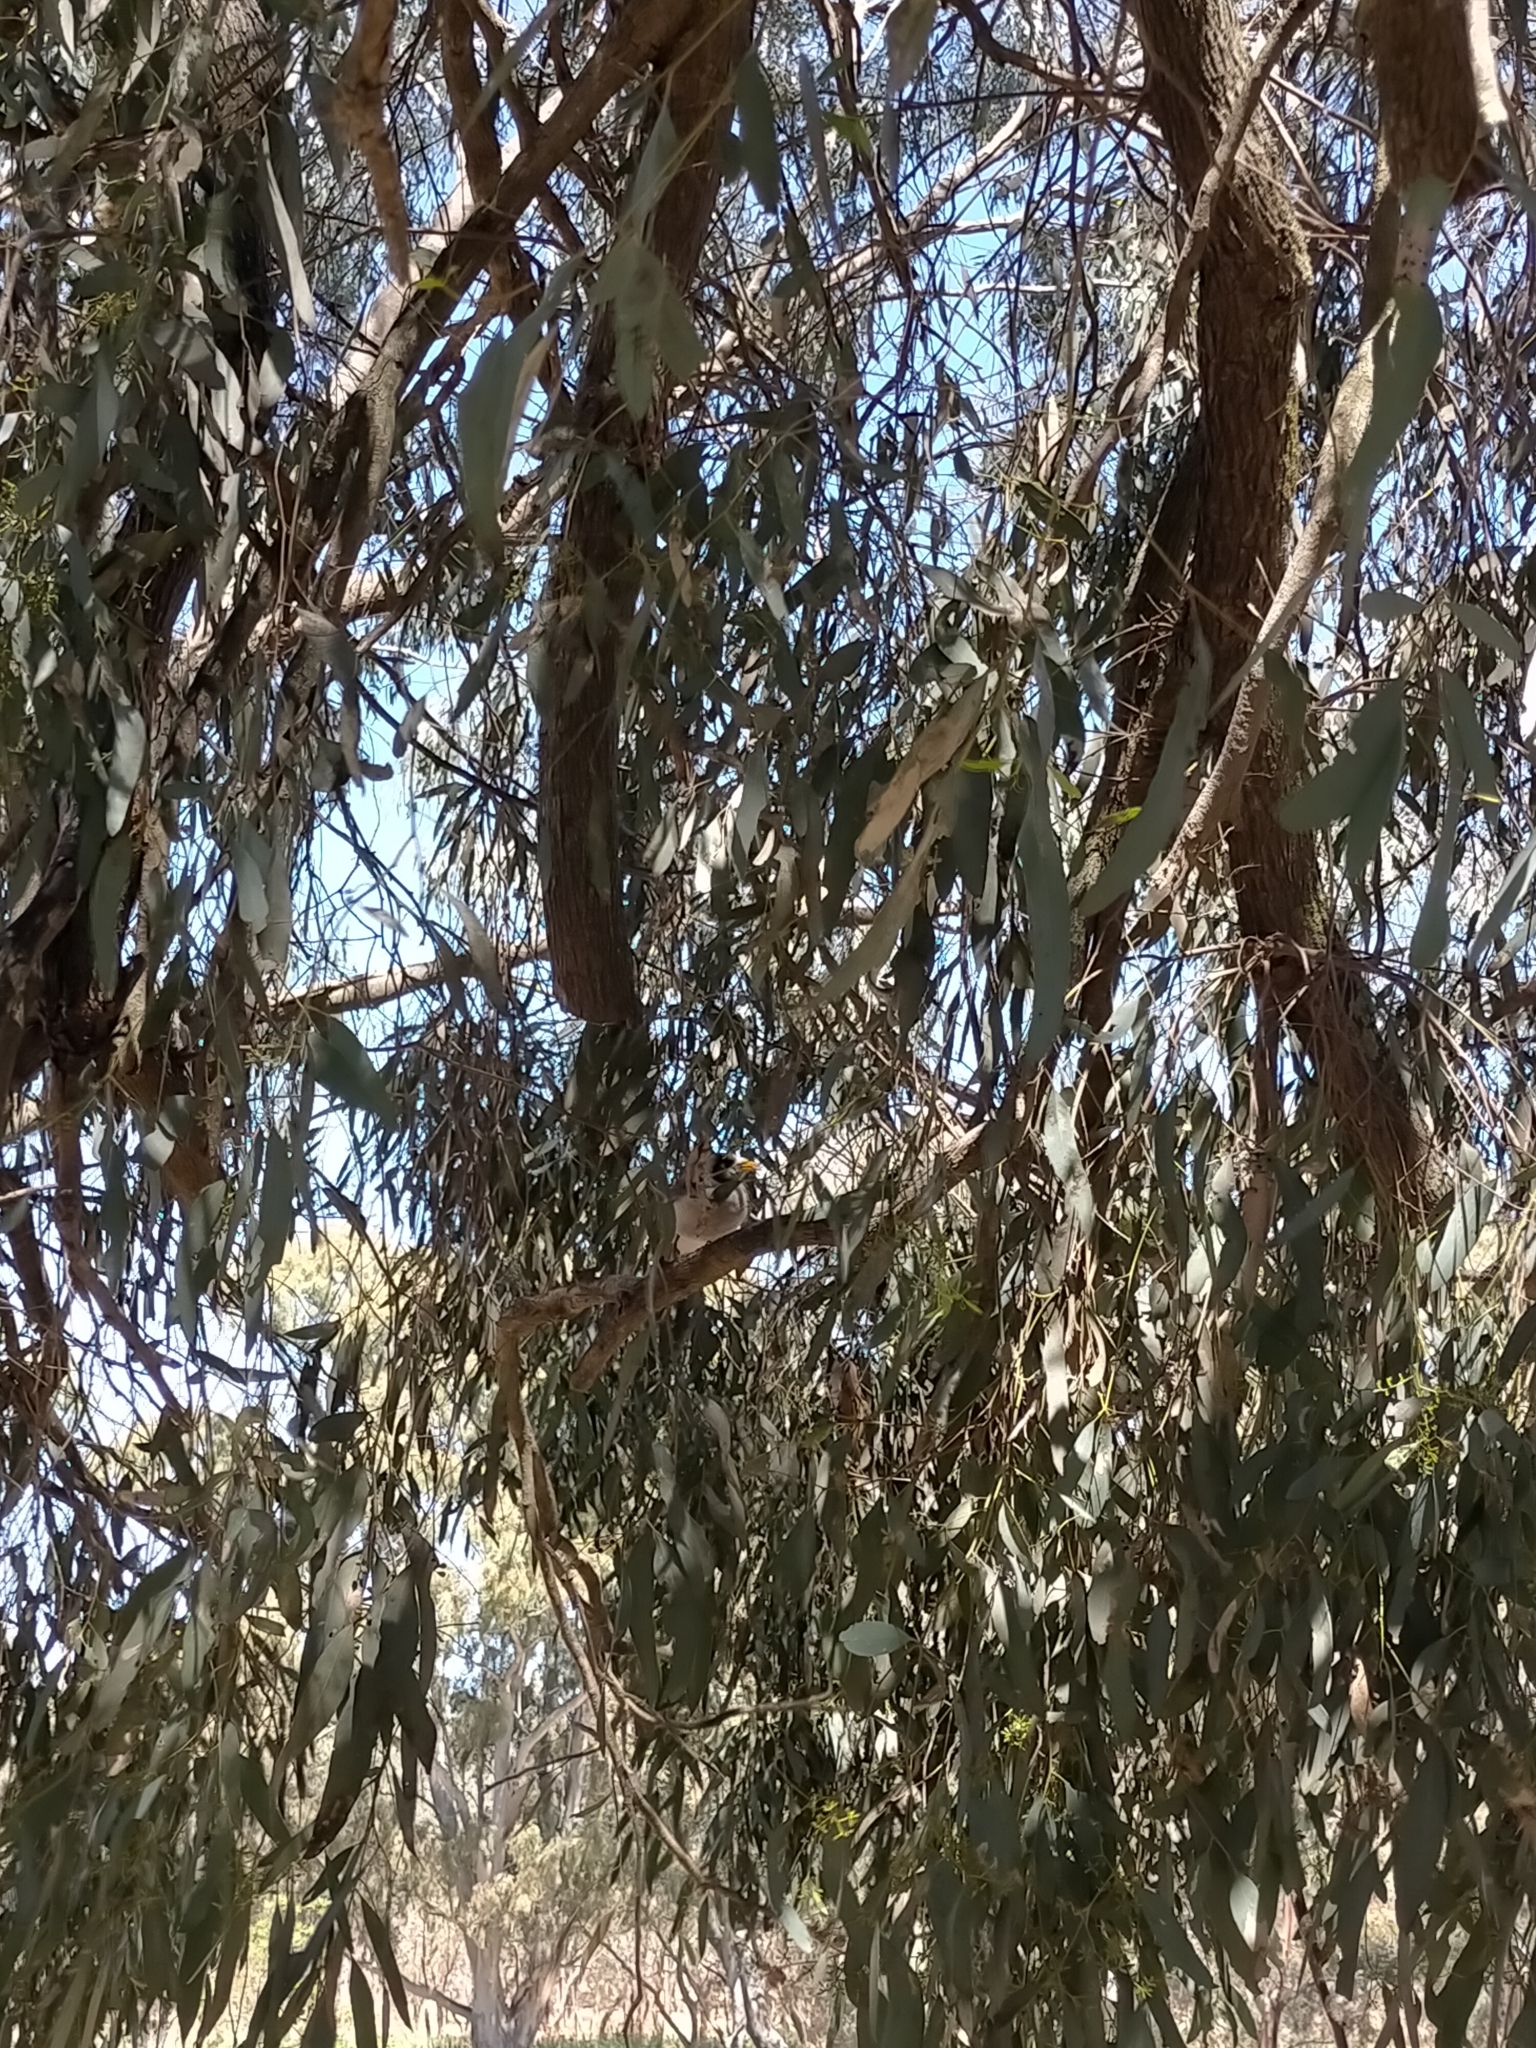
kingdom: Animalia
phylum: Chordata
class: Aves
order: Passeriformes
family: Meliphagidae
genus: Manorina
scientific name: Manorina melanocephala
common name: Noisy miner
